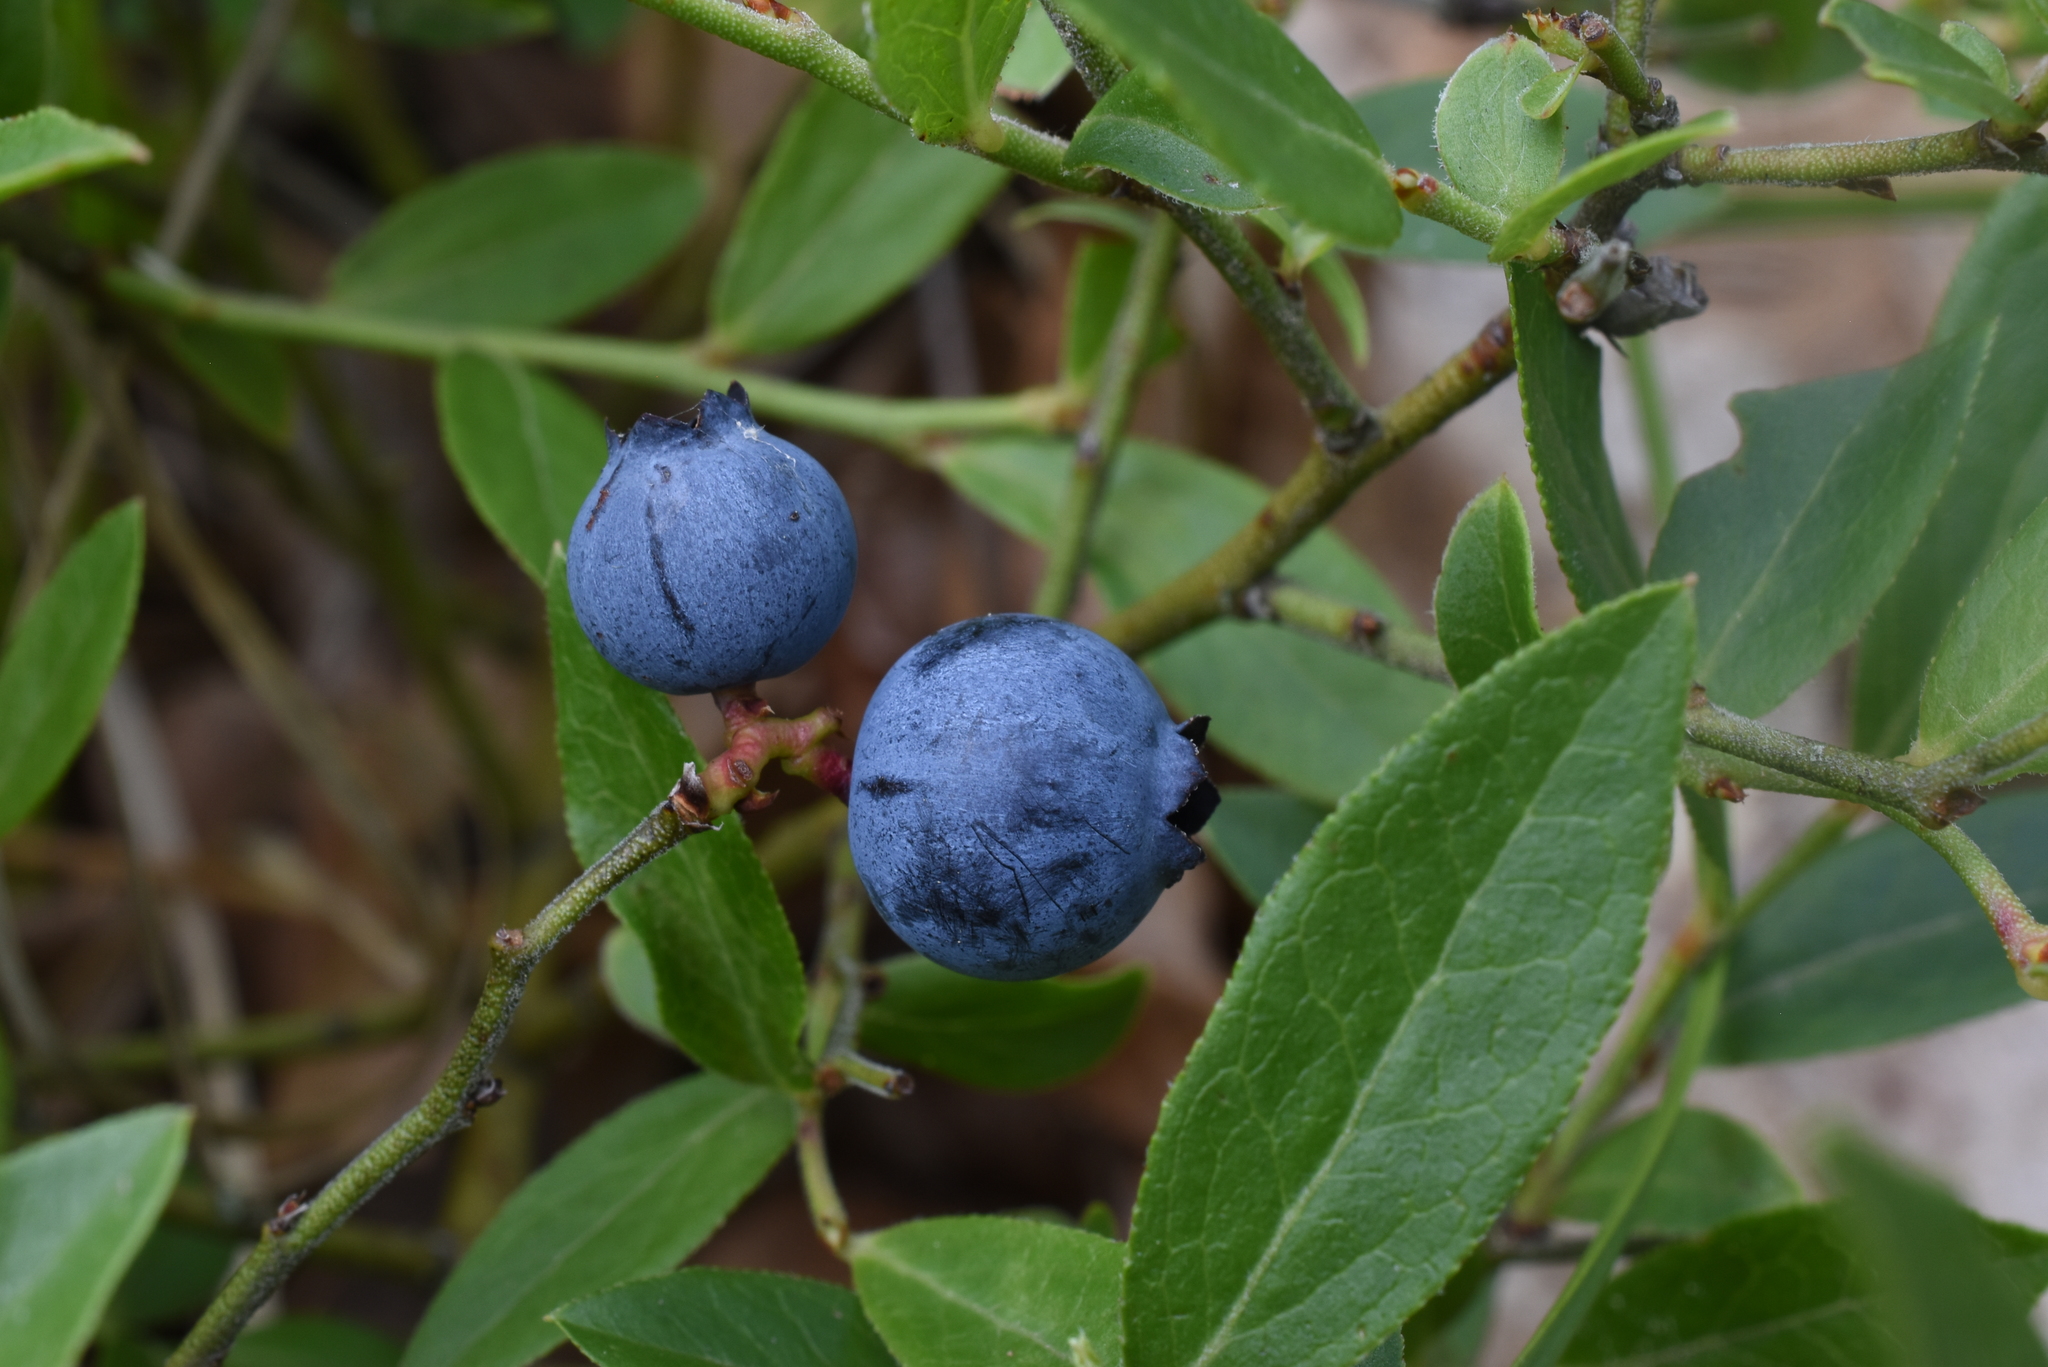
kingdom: Plantae
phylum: Tracheophyta
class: Magnoliopsida
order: Ericales
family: Ericaceae
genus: Vaccinium
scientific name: Vaccinium angustifolium
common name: Early lowbush blueberry
